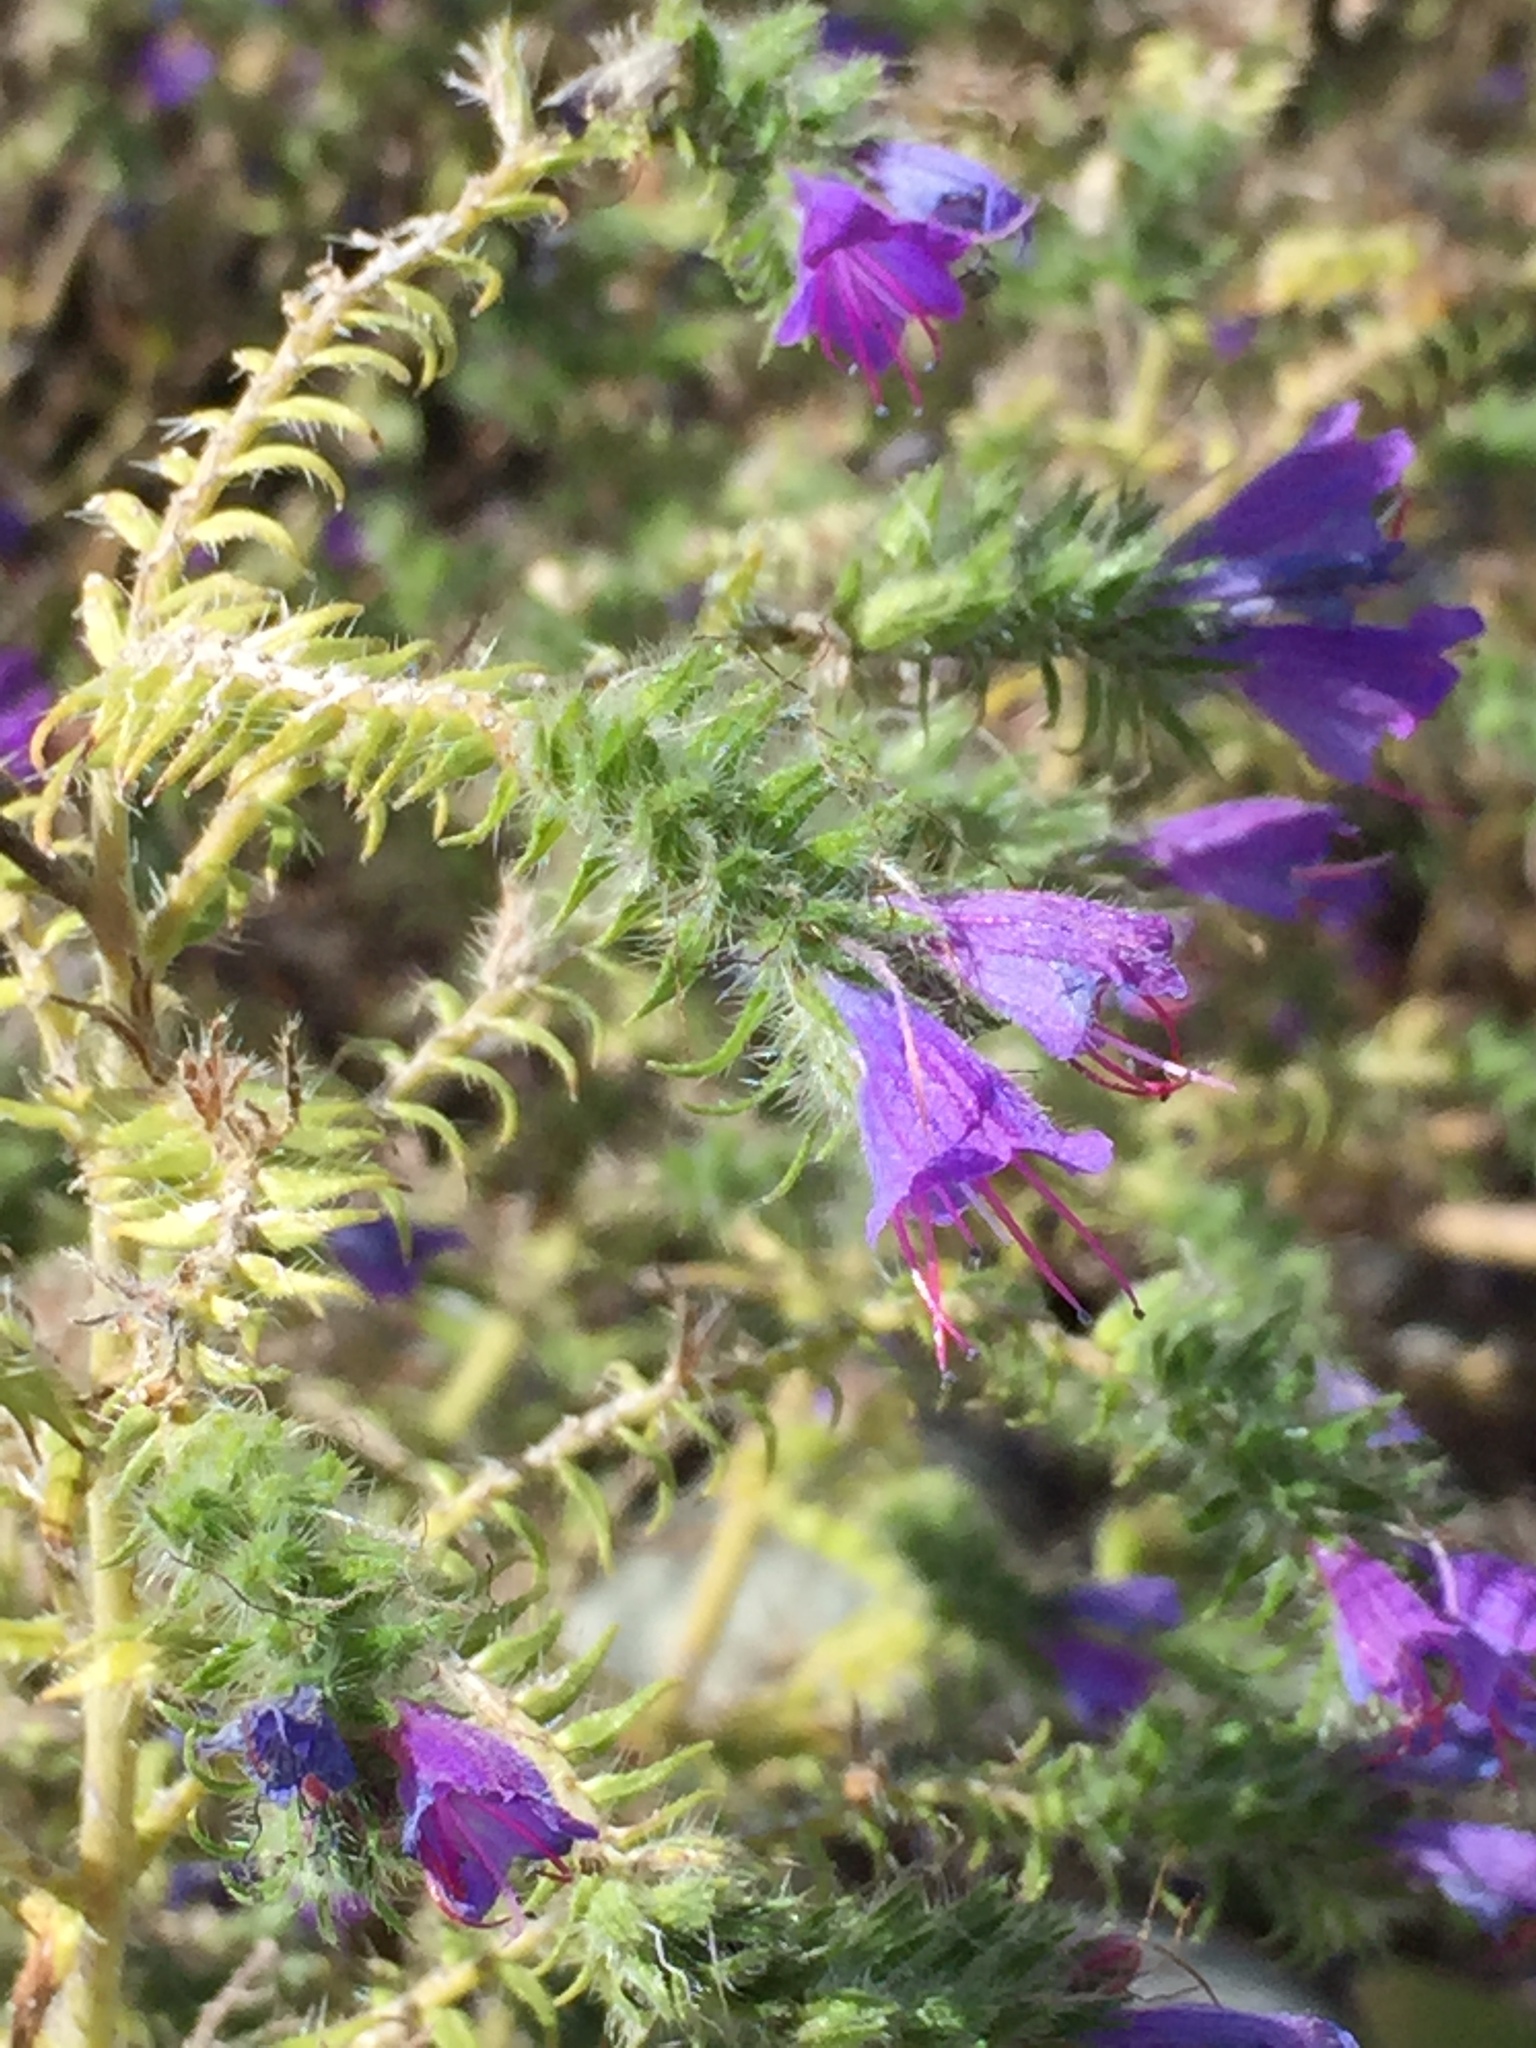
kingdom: Plantae
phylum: Tracheophyta
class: Magnoliopsida
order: Boraginales
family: Boraginaceae
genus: Echium
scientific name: Echium vulgare
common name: Common viper's bugloss
